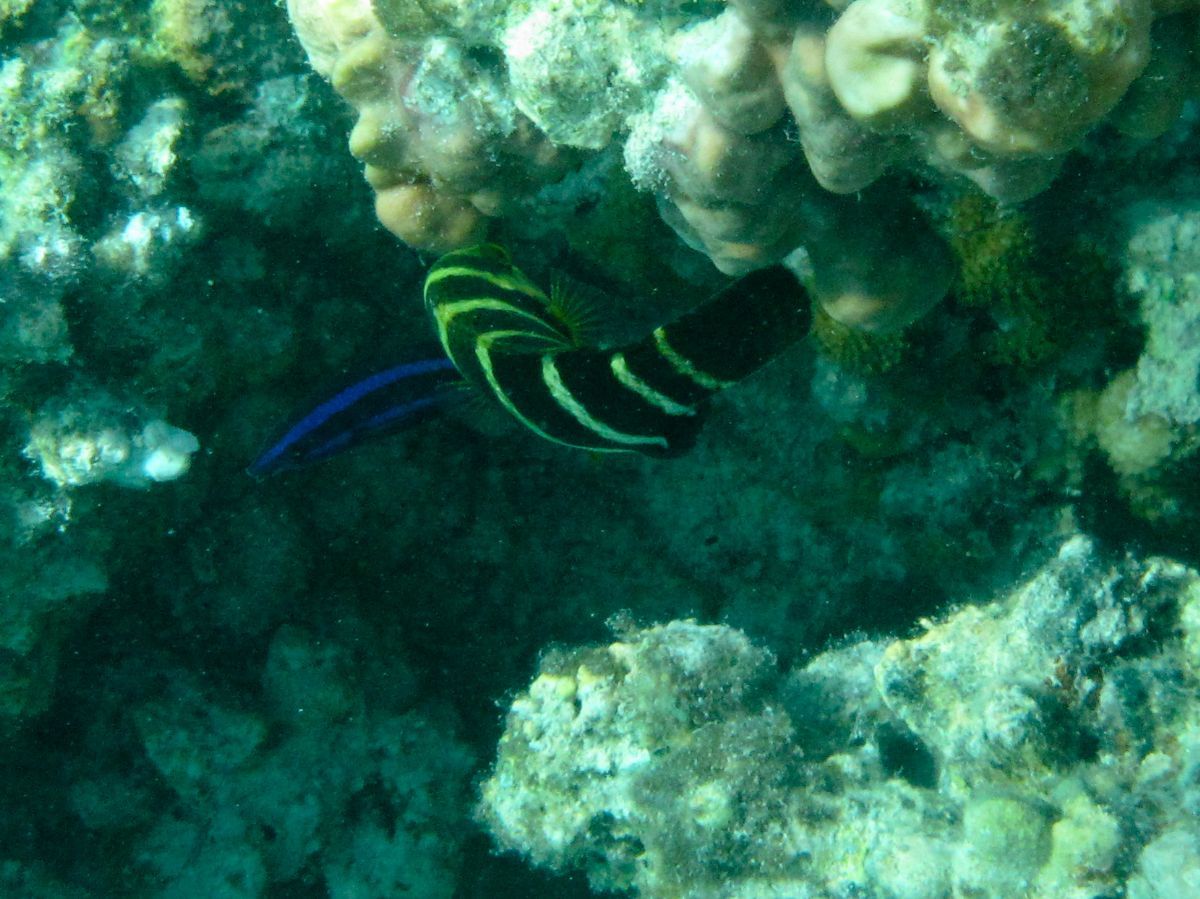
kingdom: Animalia
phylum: Chordata
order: Perciformes
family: Labridae
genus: Larabicus
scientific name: Larabicus quadrilineatus
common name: Fourline wrasse
